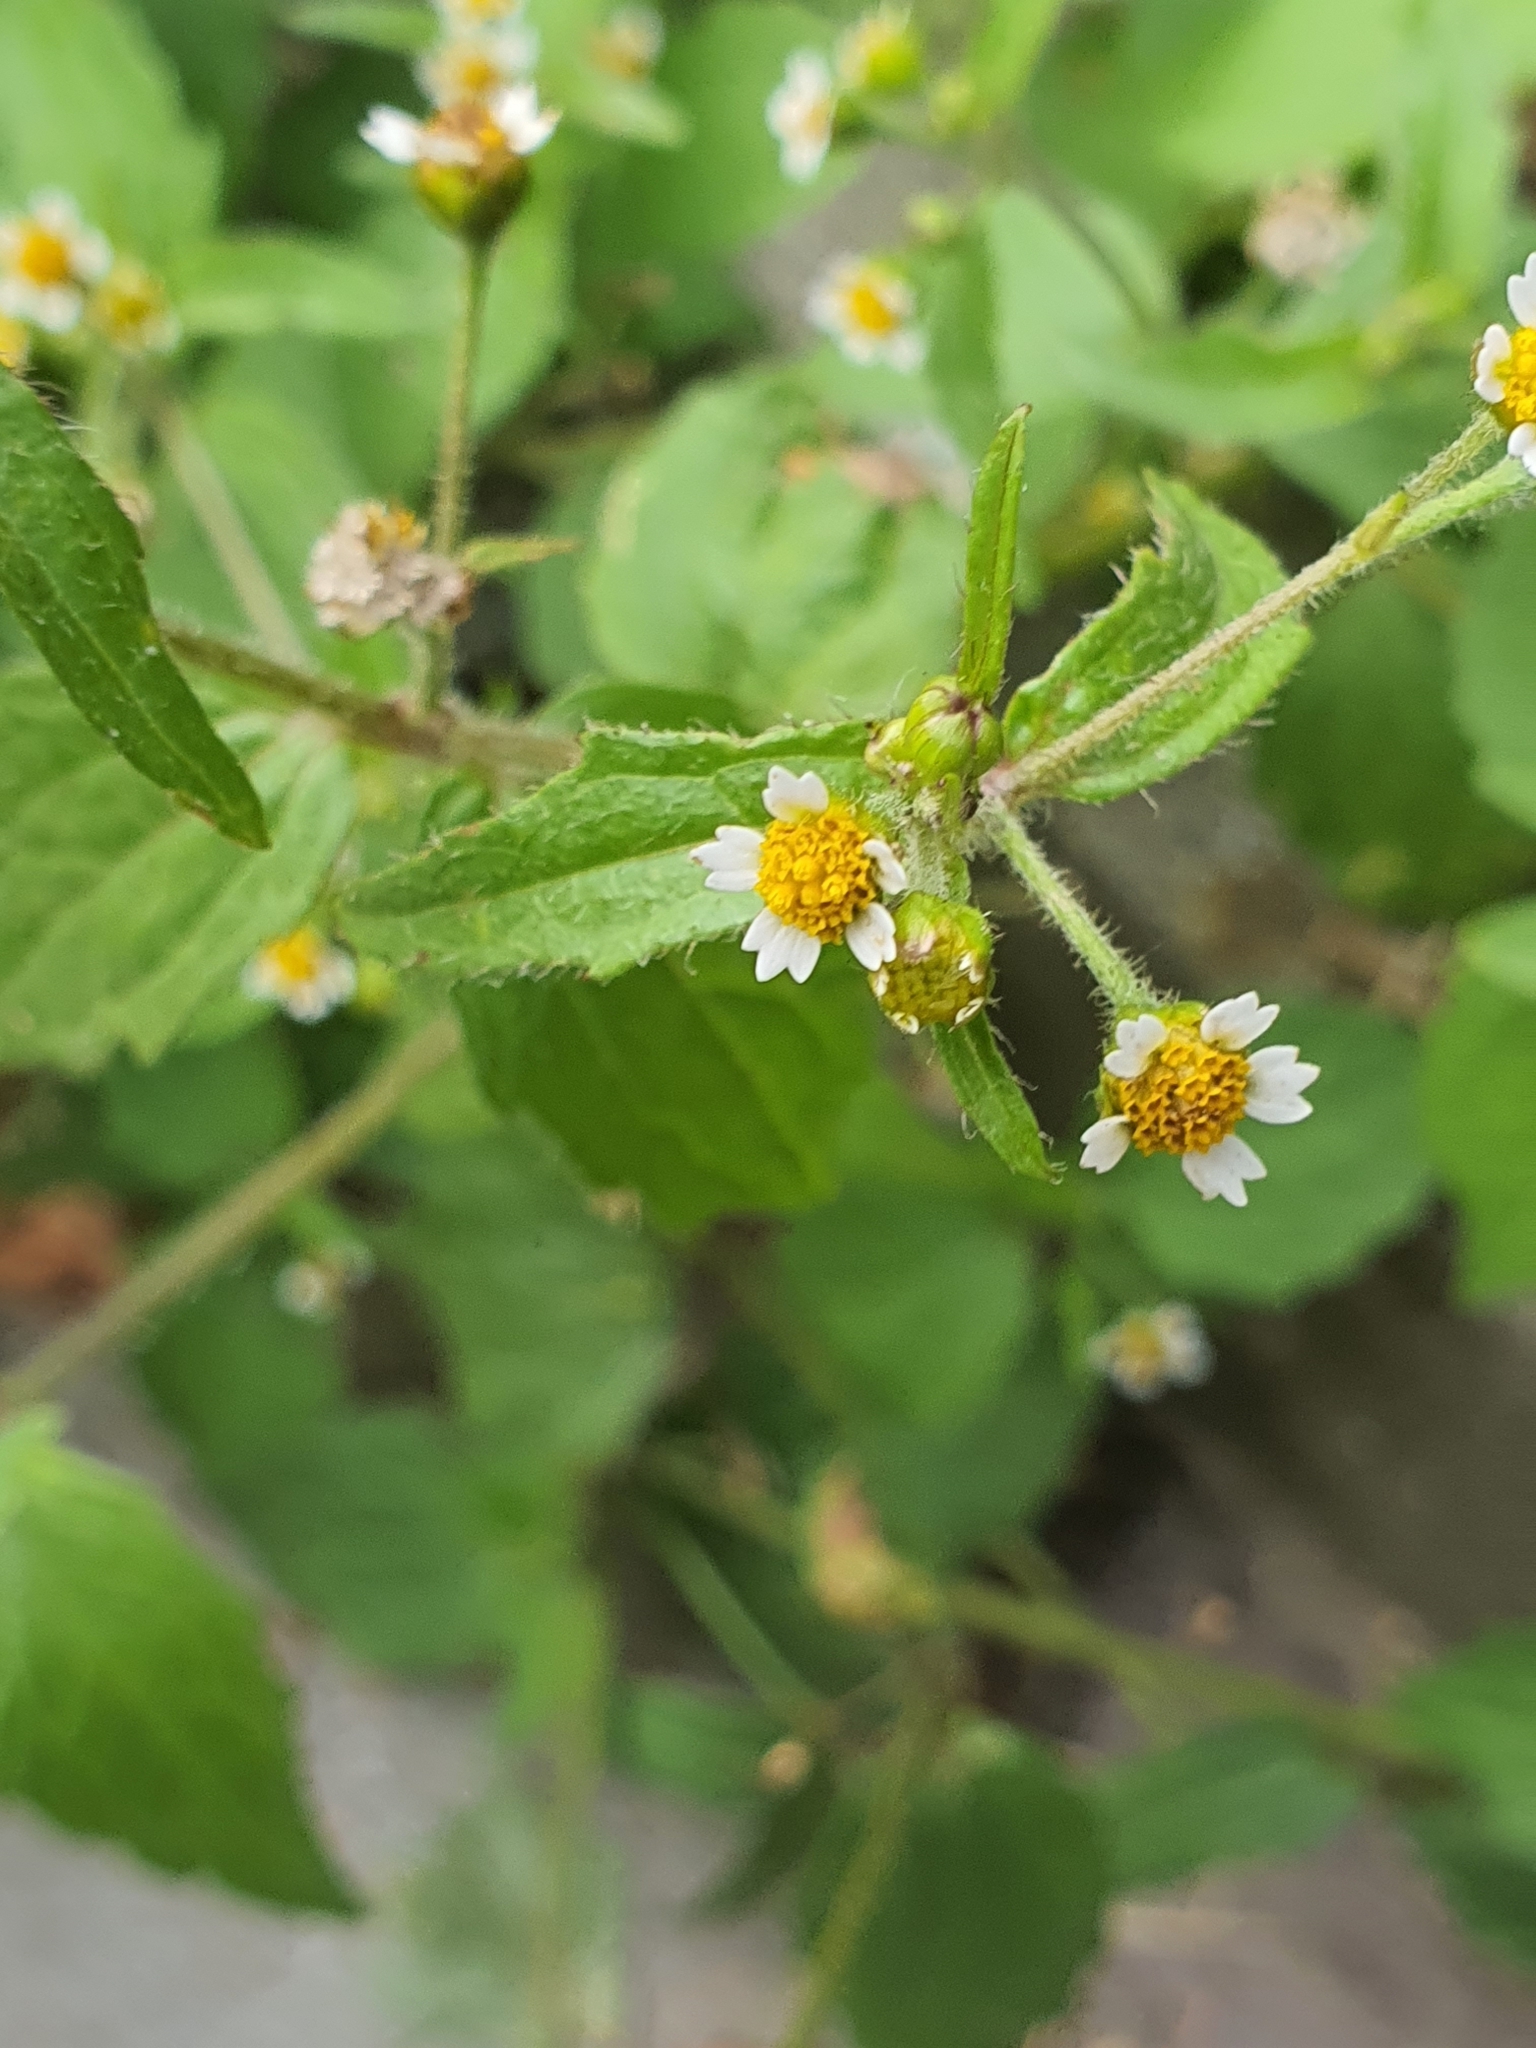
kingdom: Plantae
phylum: Tracheophyta
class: Magnoliopsida
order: Asterales
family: Asteraceae
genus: Galinsoga
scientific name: Galinsoga quadriradiata
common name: Shaggy soldier
